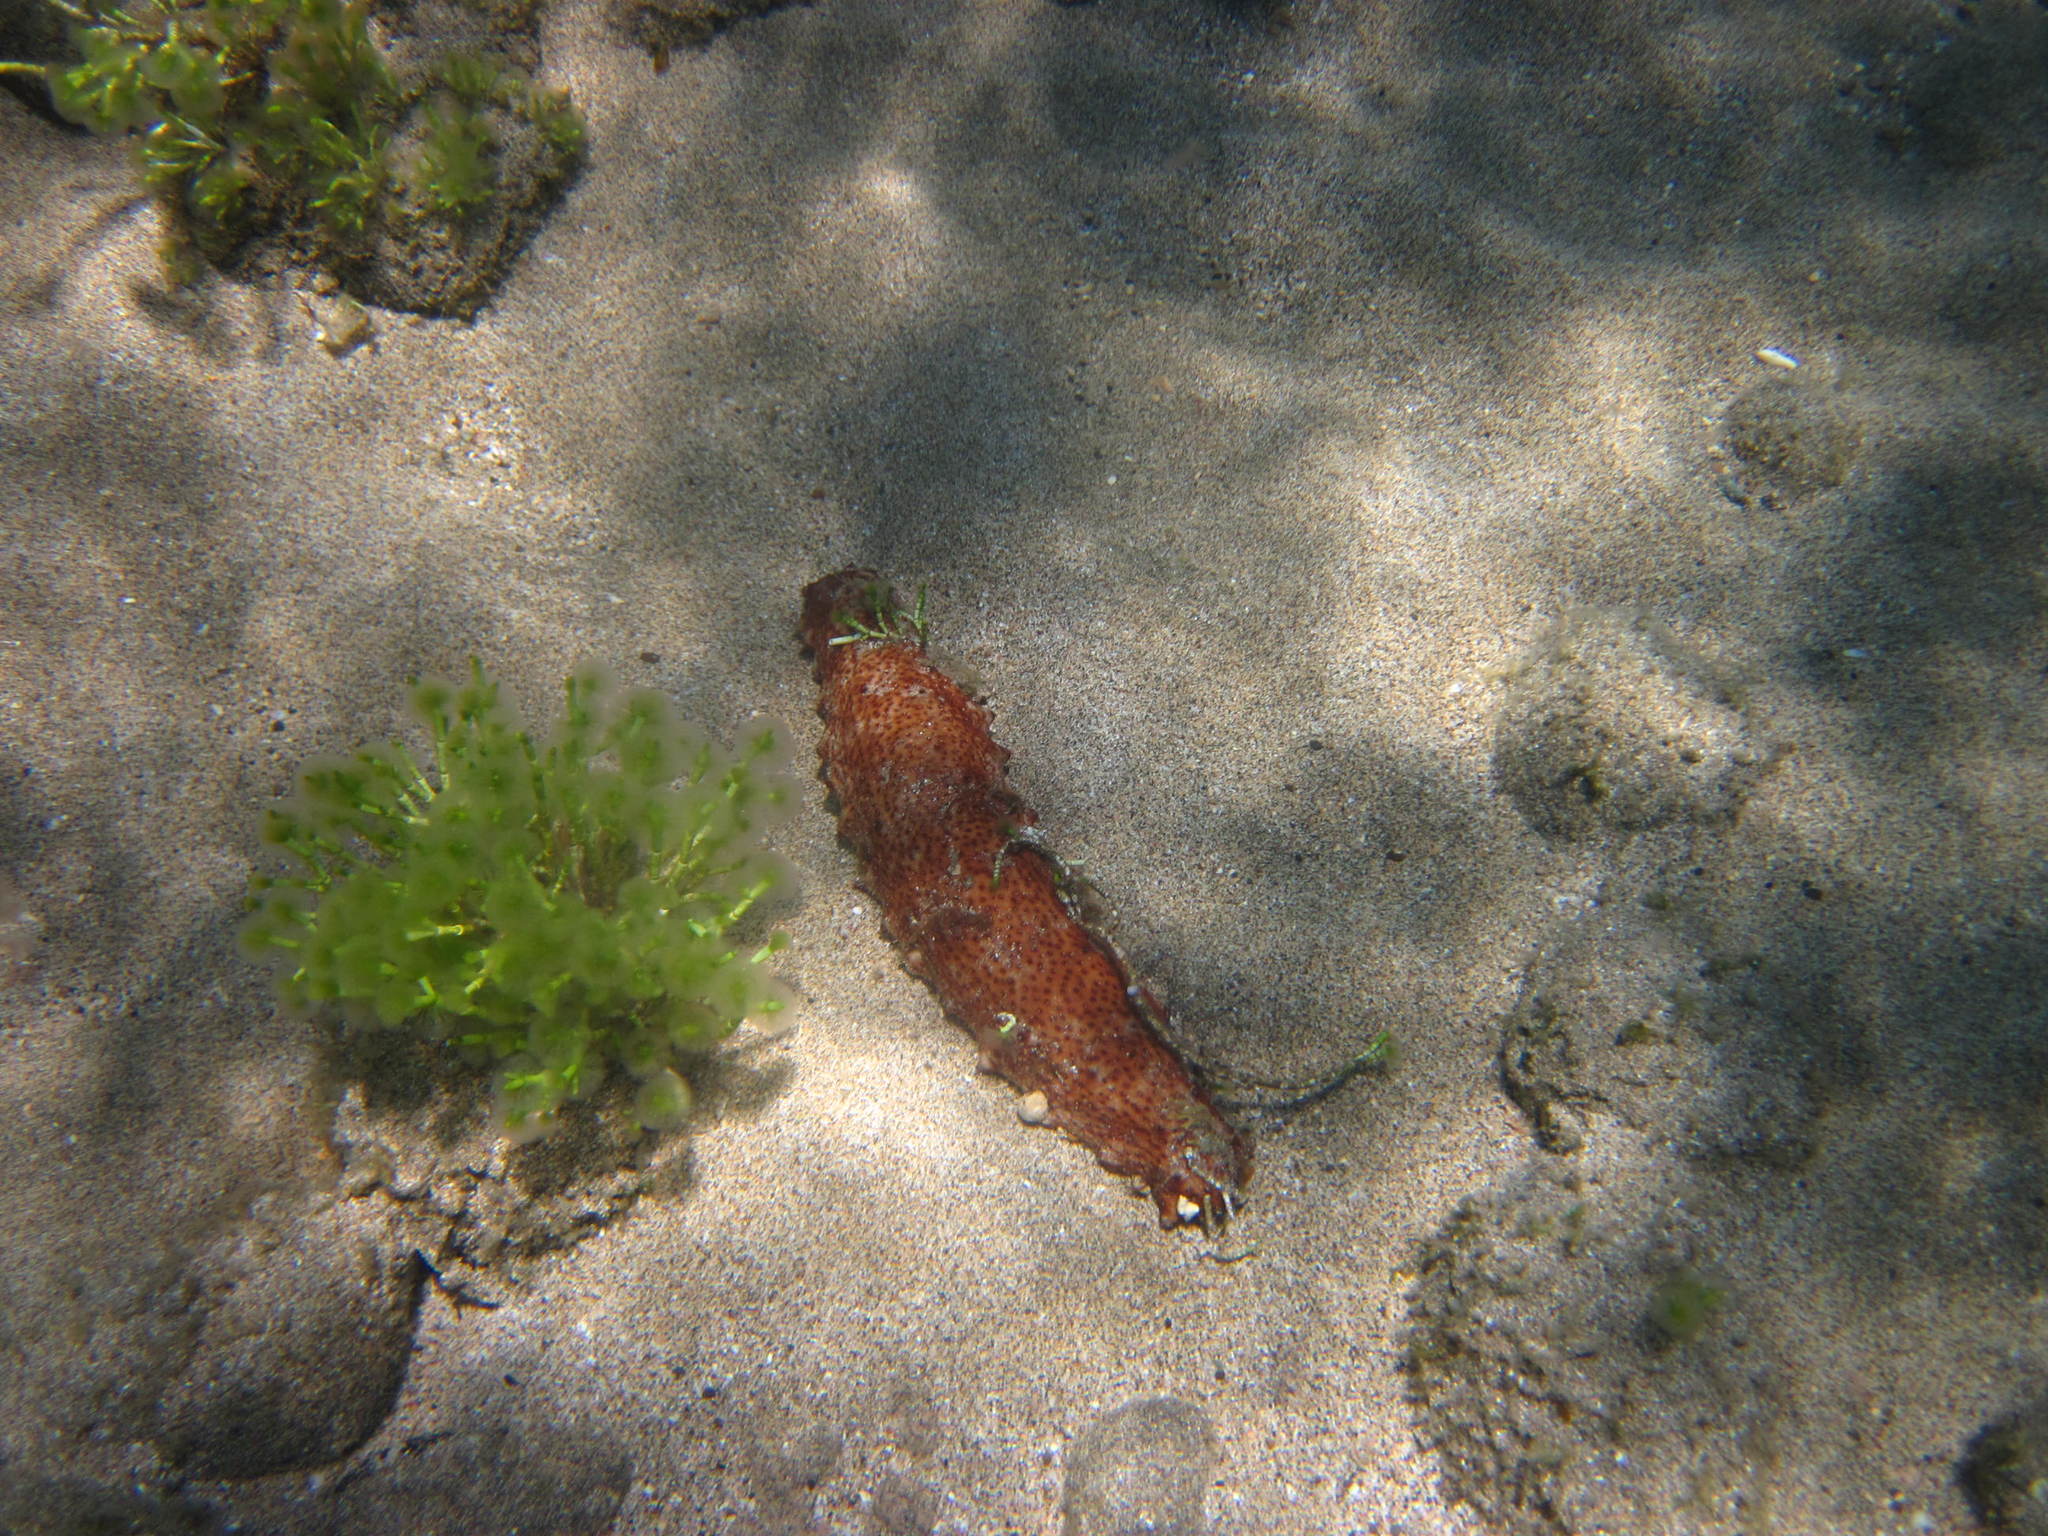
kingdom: Animalia
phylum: Echinodermata
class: Holothuroidea
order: Holothuriida
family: Holothuriidae
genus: Holothuria
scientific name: Holothuria arguinensis
